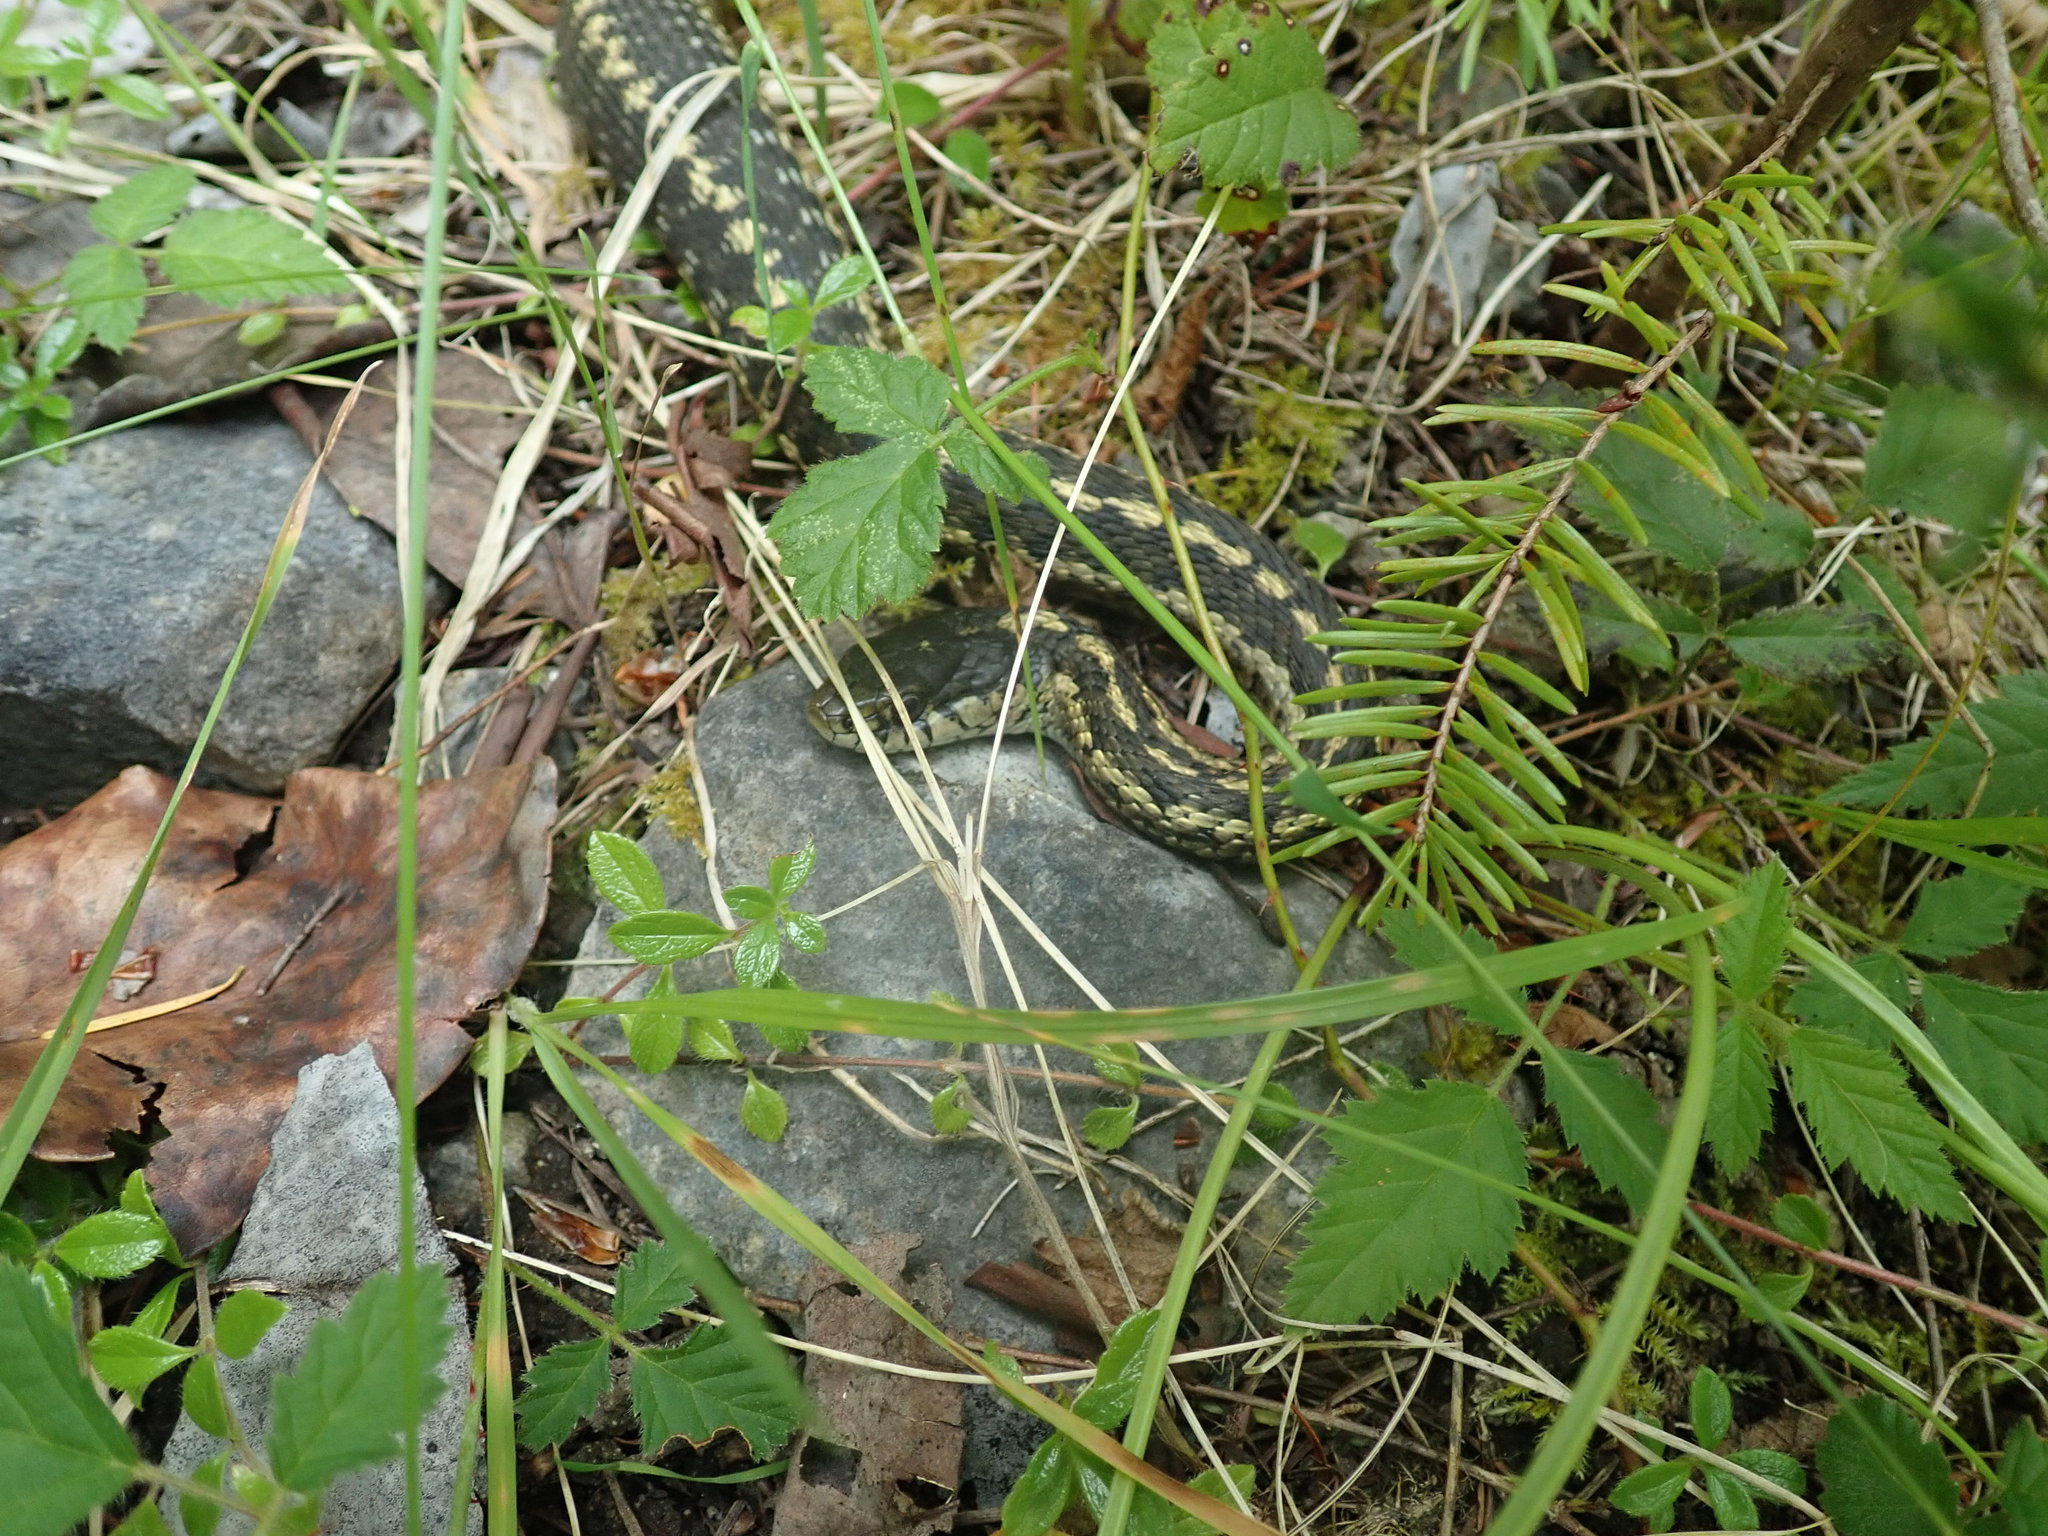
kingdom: Animalia
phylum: Chordata
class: Squamata
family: Colubridae
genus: Thamnophis
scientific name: Thamnophis elegans
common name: Western terrestrial garter snake
